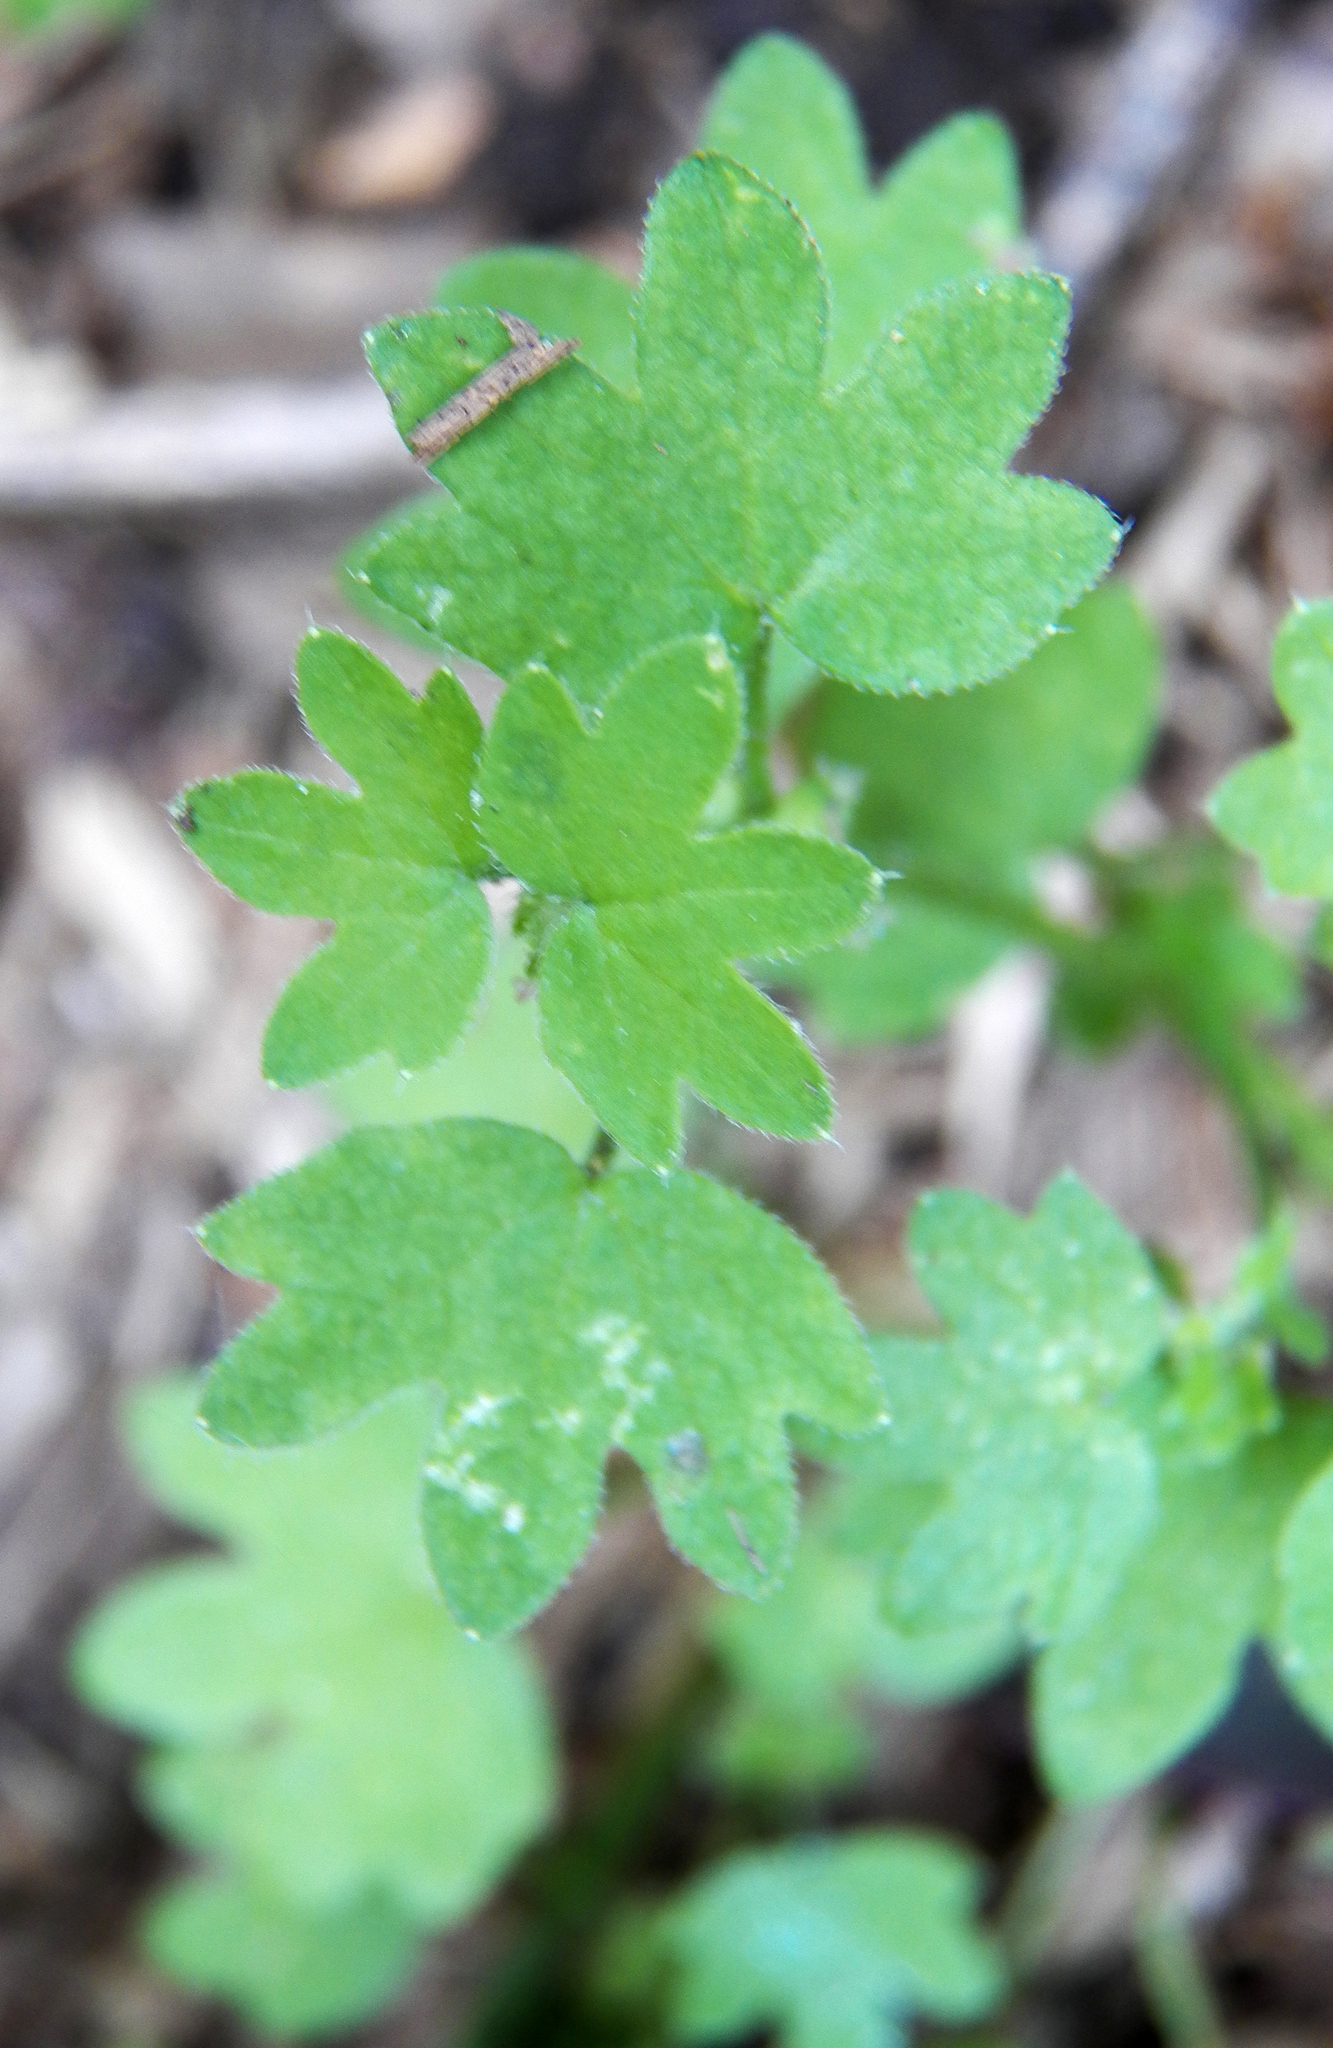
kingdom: Plantae
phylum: Tracheophyta
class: Magnoliopsida
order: Apiales
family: Apiaceae
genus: Bowlesia
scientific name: Bowlesia incana
